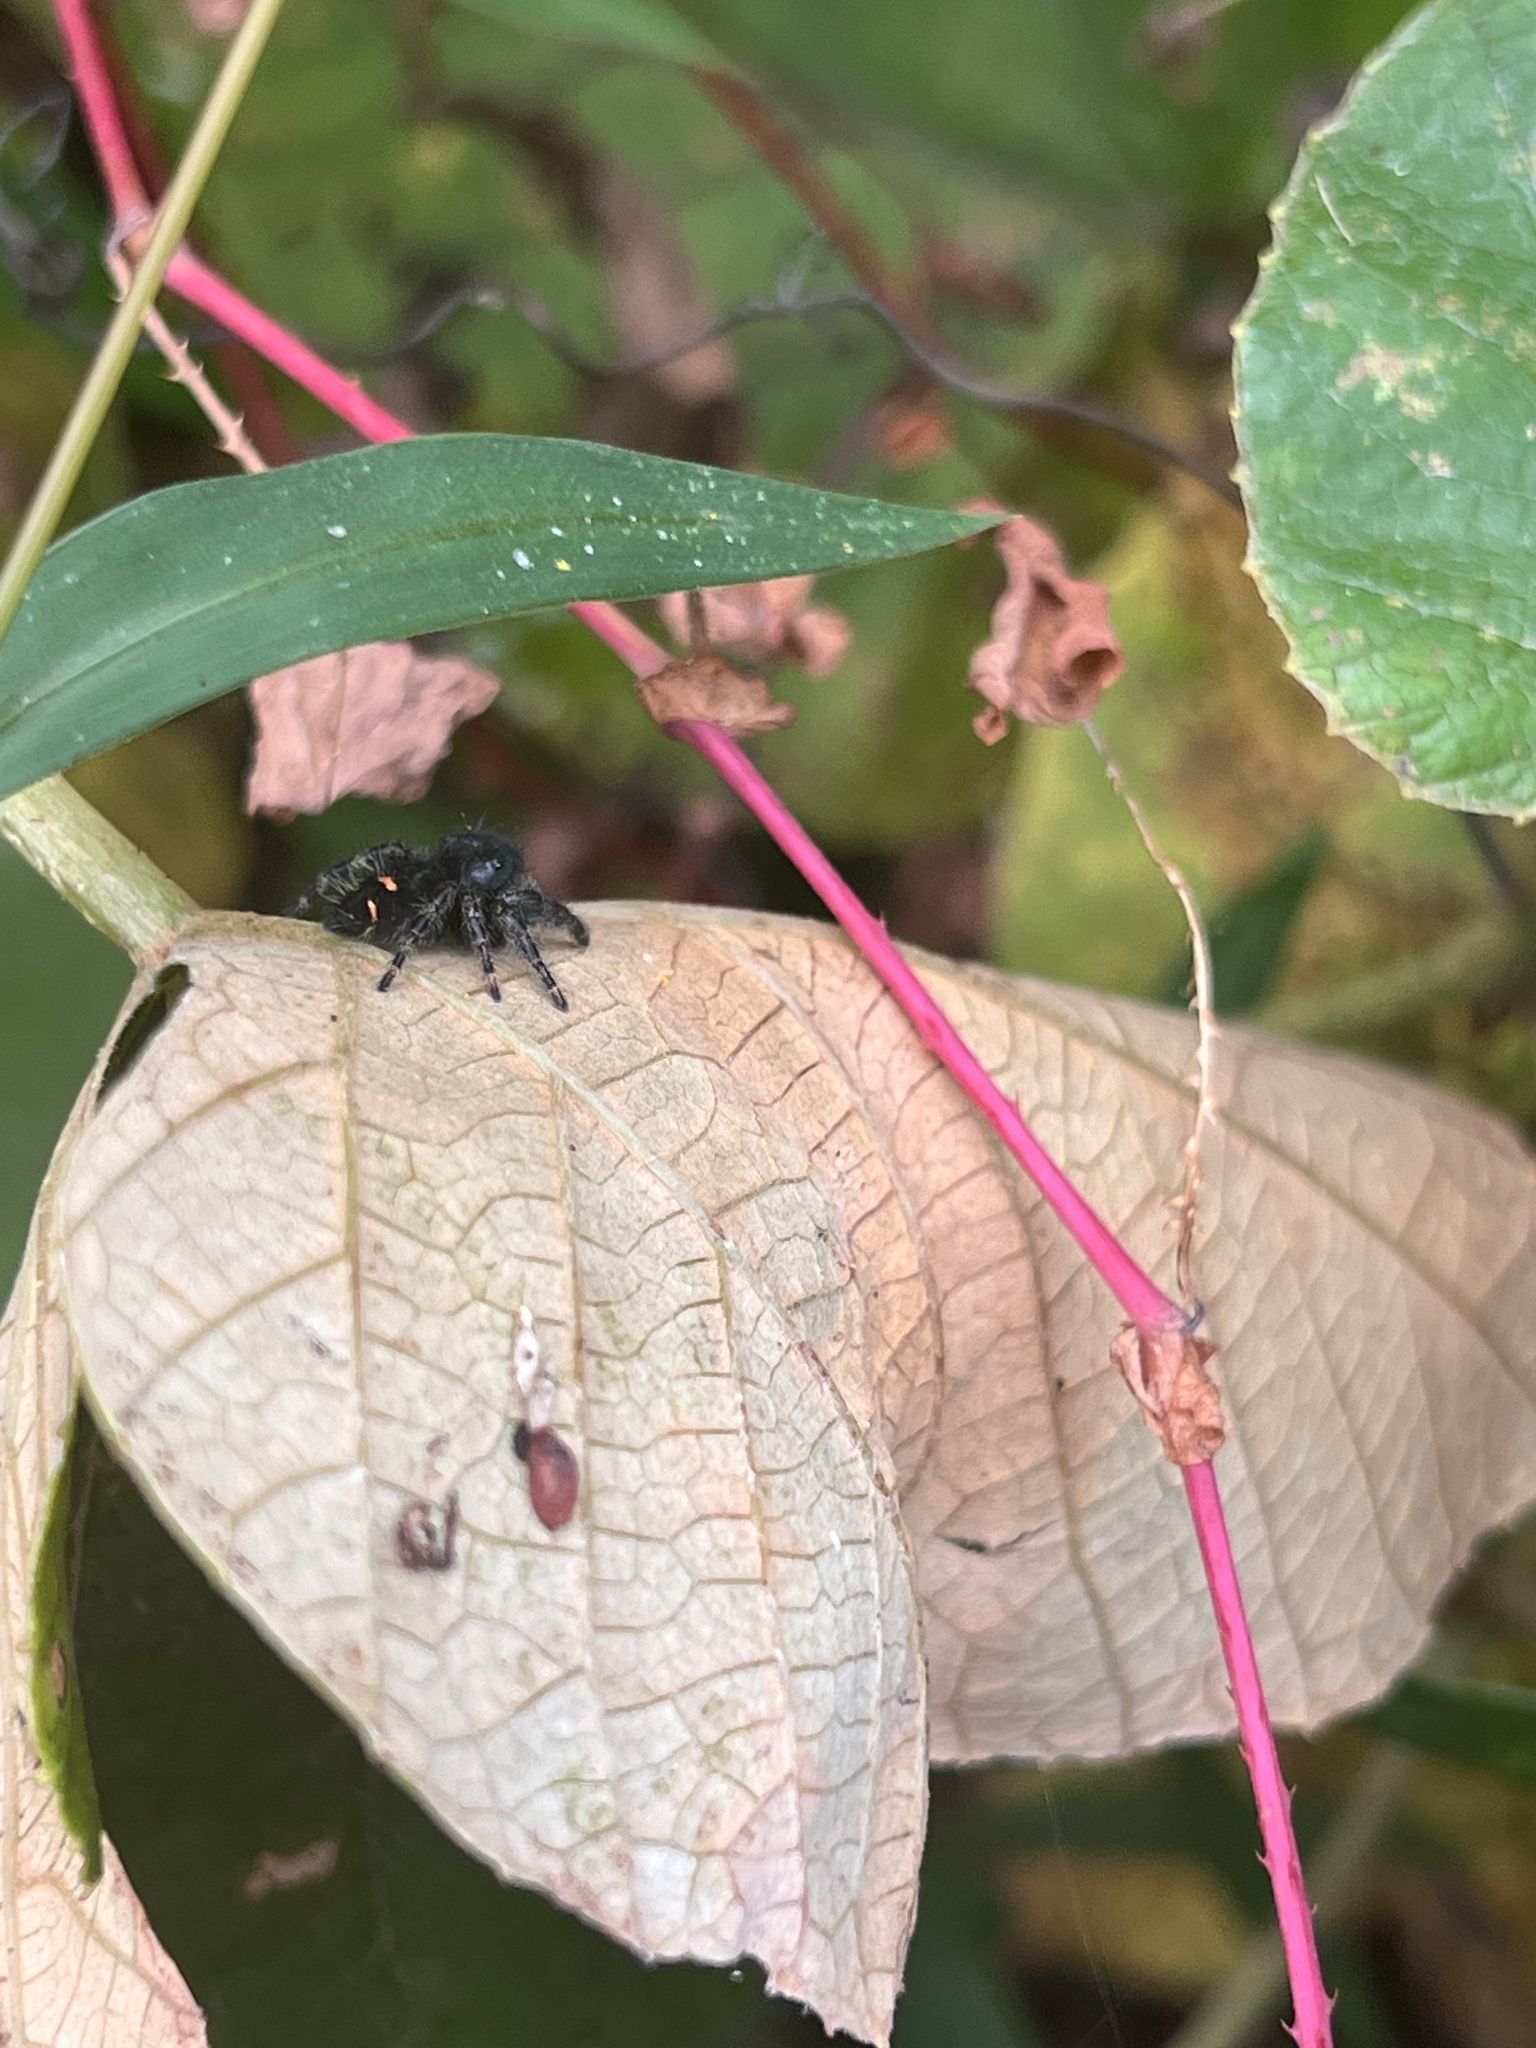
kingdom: Animalia
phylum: Arthropoda
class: Arachnida
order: Araneae
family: Salticidae
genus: Phidippus
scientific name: Phidippus audax
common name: Bold jumper
